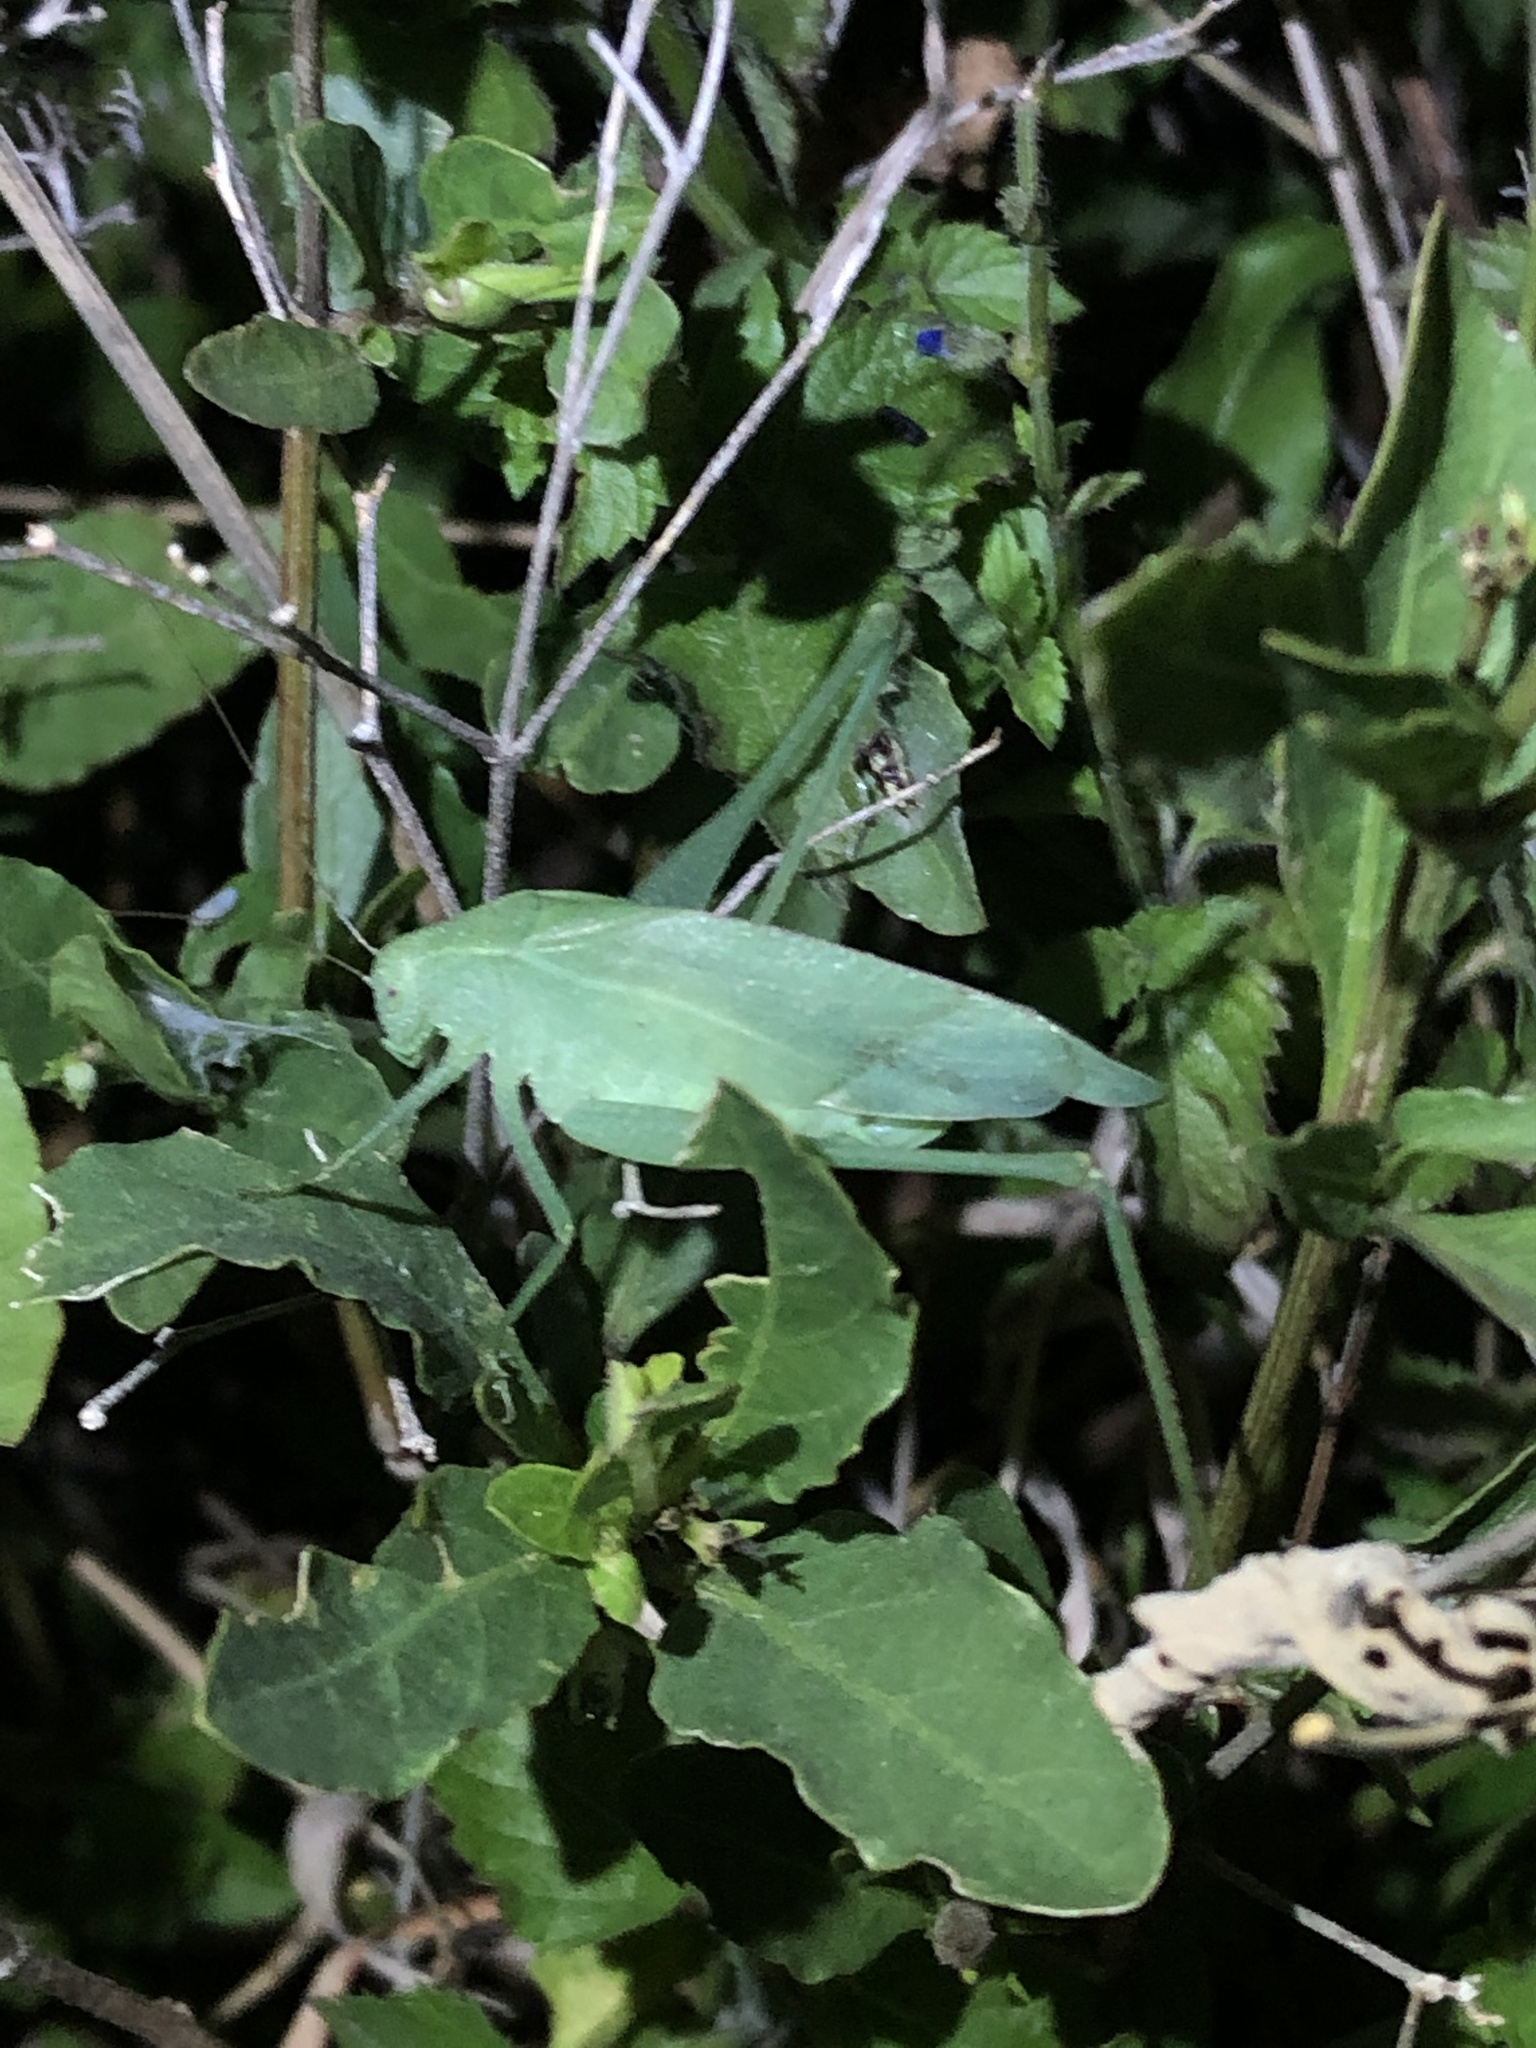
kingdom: Animalia
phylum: Arthropoda
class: Insecta
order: Orthoptera
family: Tettigoniidae
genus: Amblycorypha
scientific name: Amblycorypha rivograndis
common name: Rio grande virtuoso katydid
